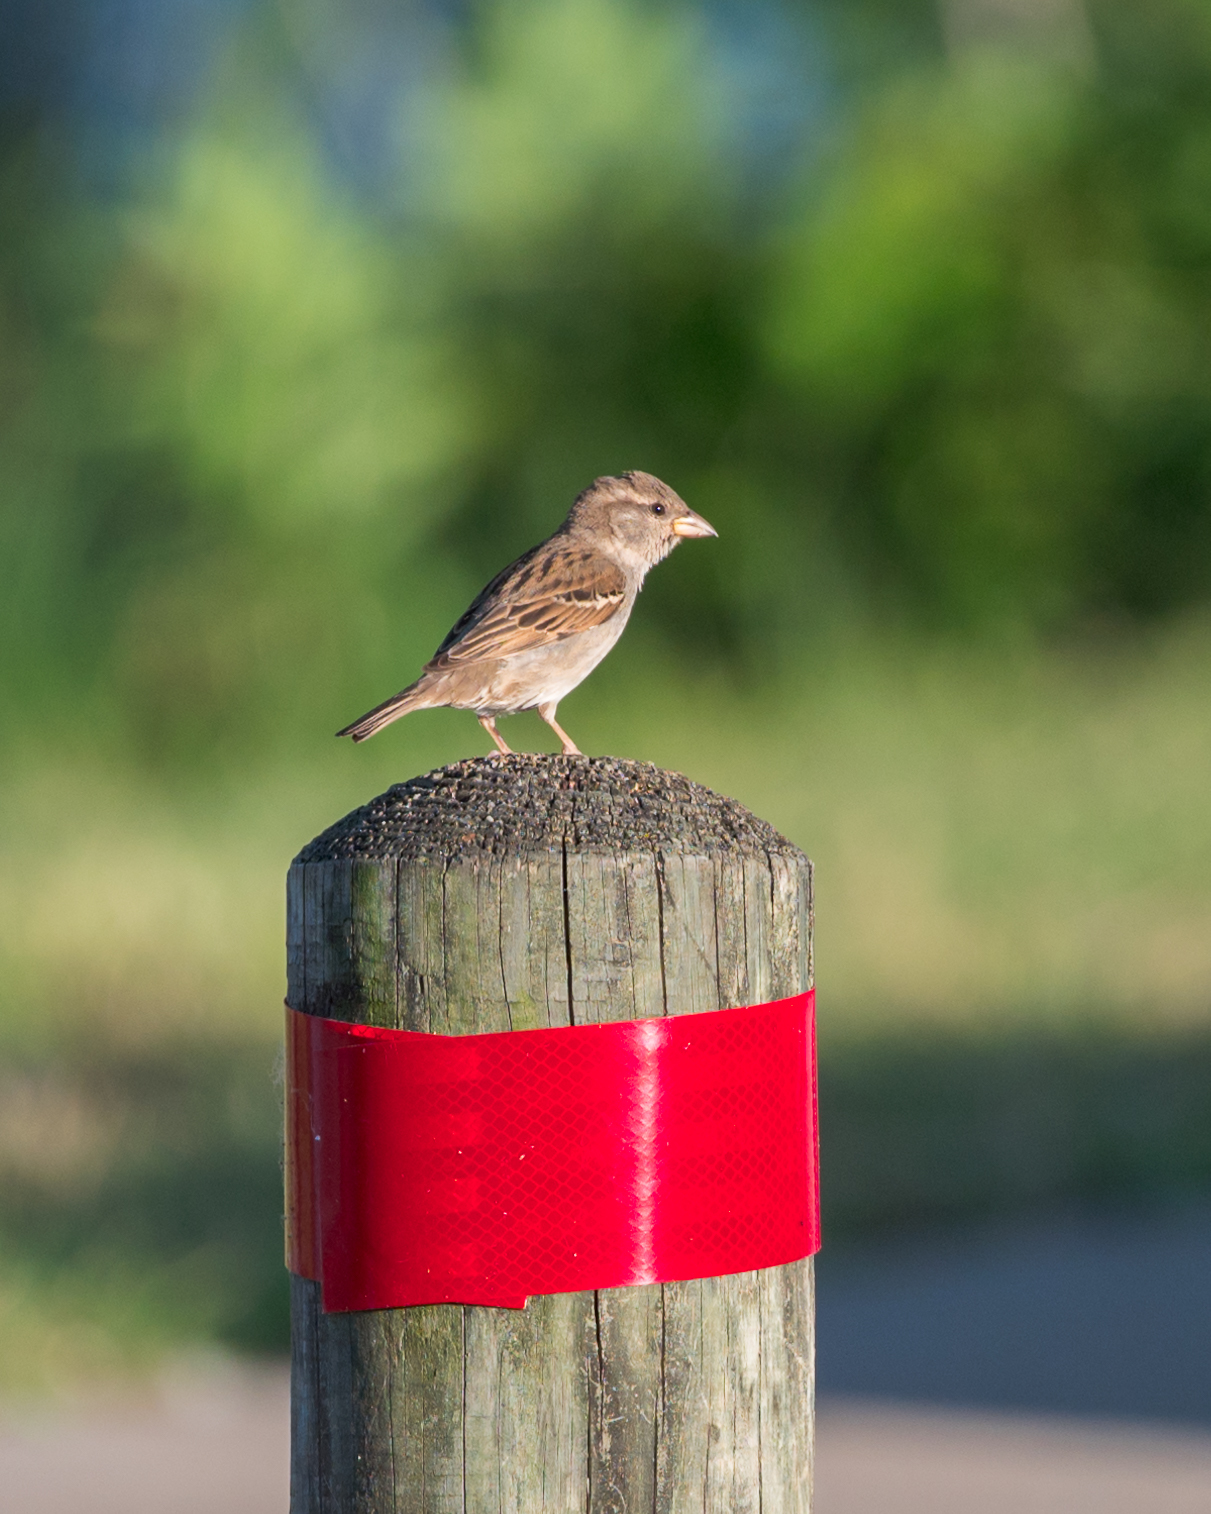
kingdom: Animalia
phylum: Chordata
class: Aves
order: Passeriformes
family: Passeridae
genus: Passer
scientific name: Passer domesticus
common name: House sparrow
